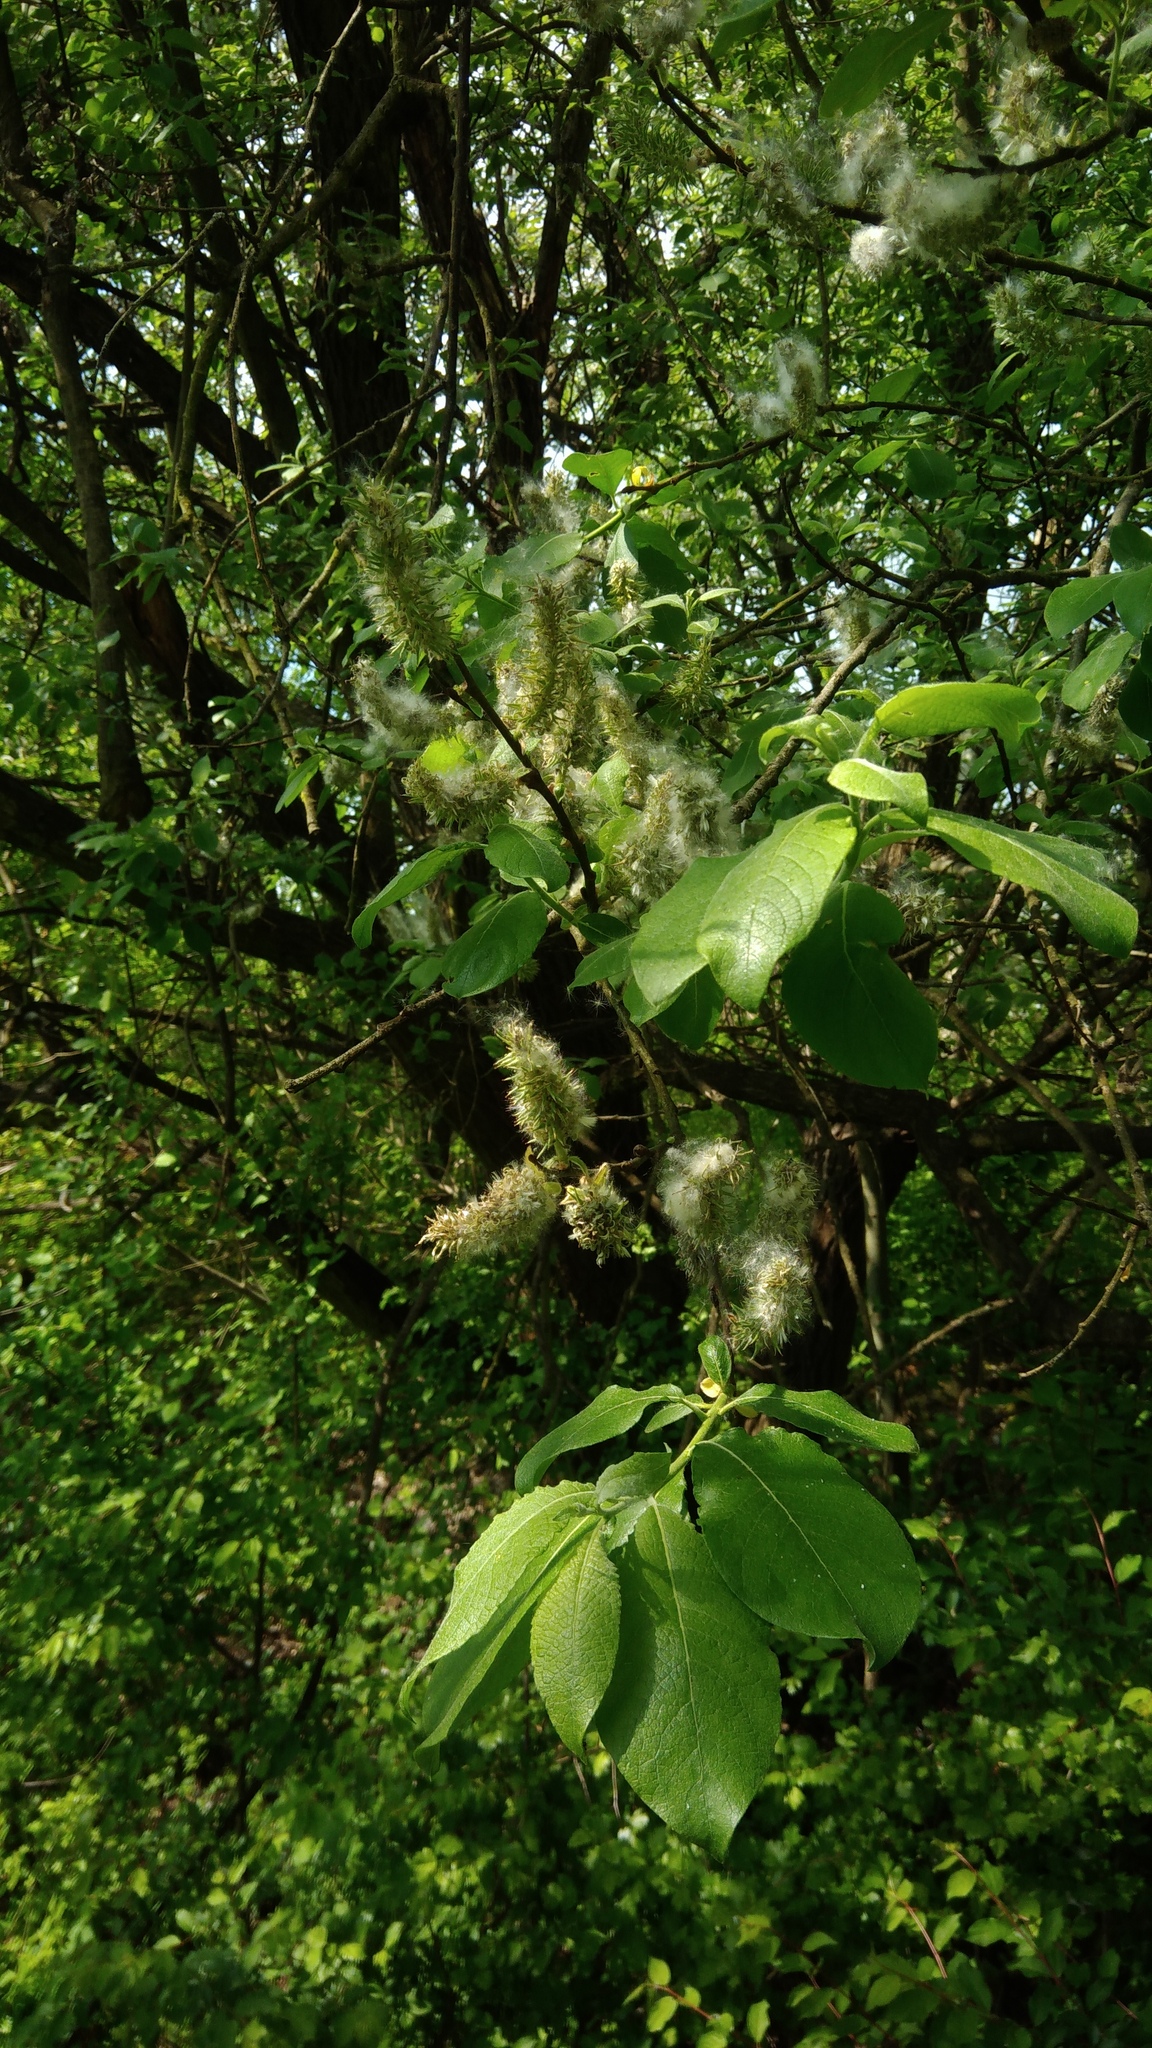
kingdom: Plantae
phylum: Tracheophyta
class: Magnoliopsida
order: Malpighiales
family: Salicaceae
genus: Salix
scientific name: Salix caprea
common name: Goat willow
